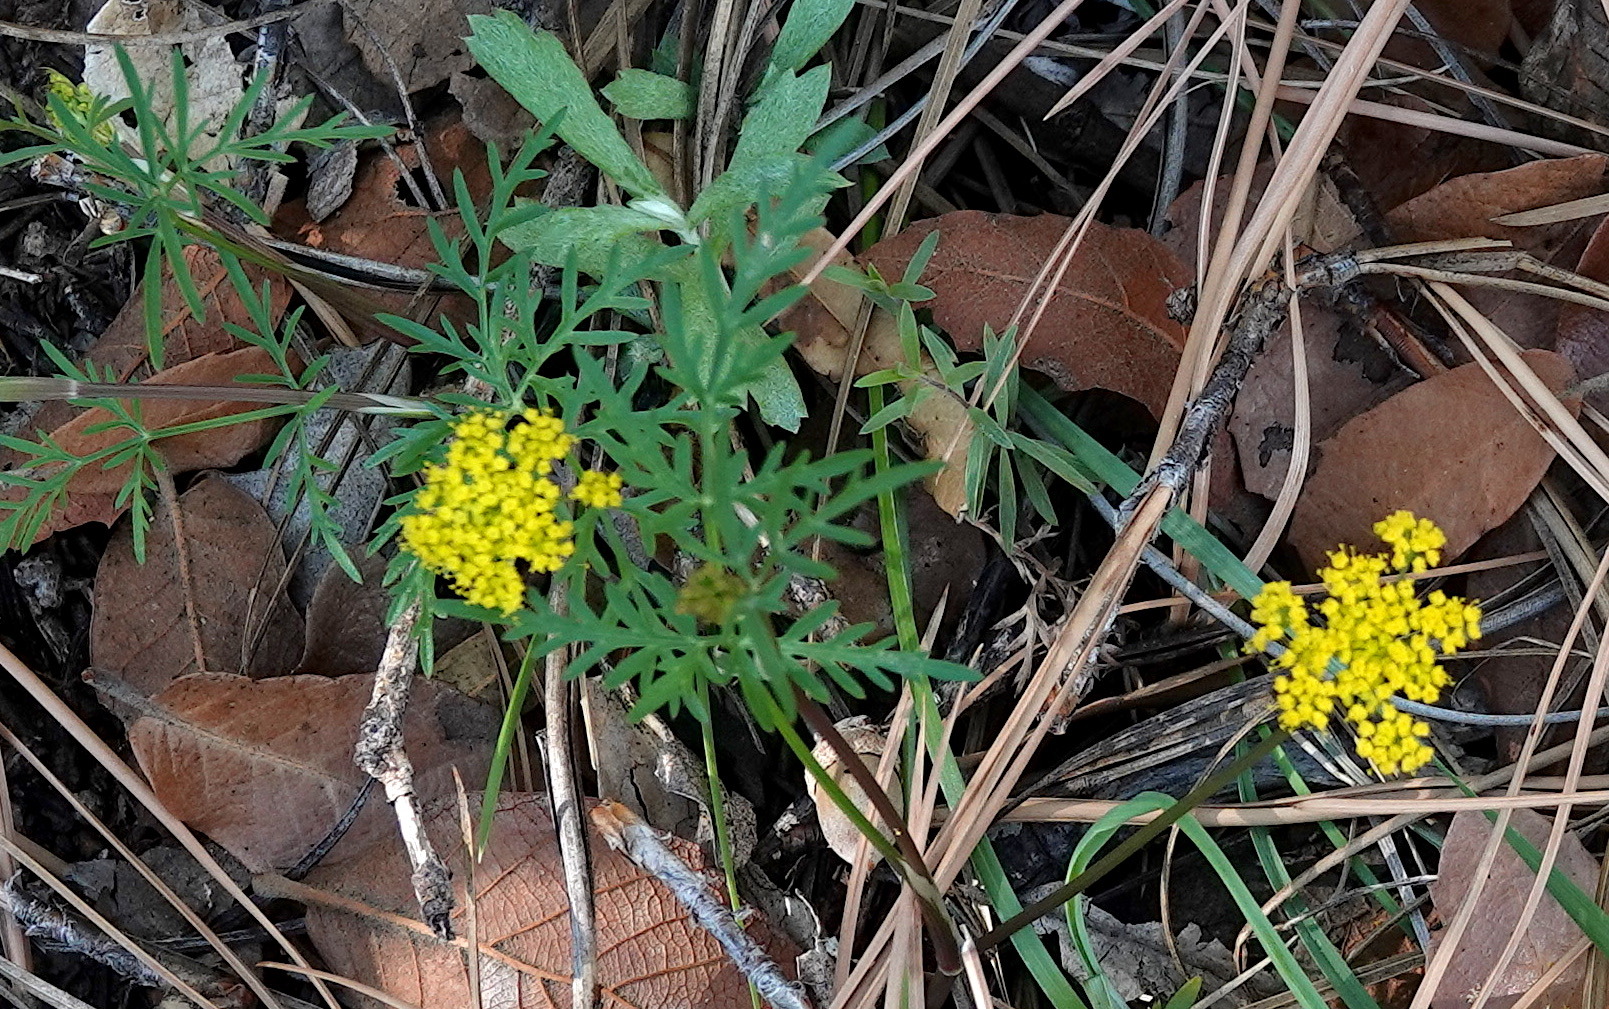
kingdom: Plantae
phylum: Tracheophyta
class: Magnoliopsida
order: Apiales
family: Apiaceae
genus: Cymopterus
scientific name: Cymopterus lemmonii
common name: Lemmon's spring-parsley
